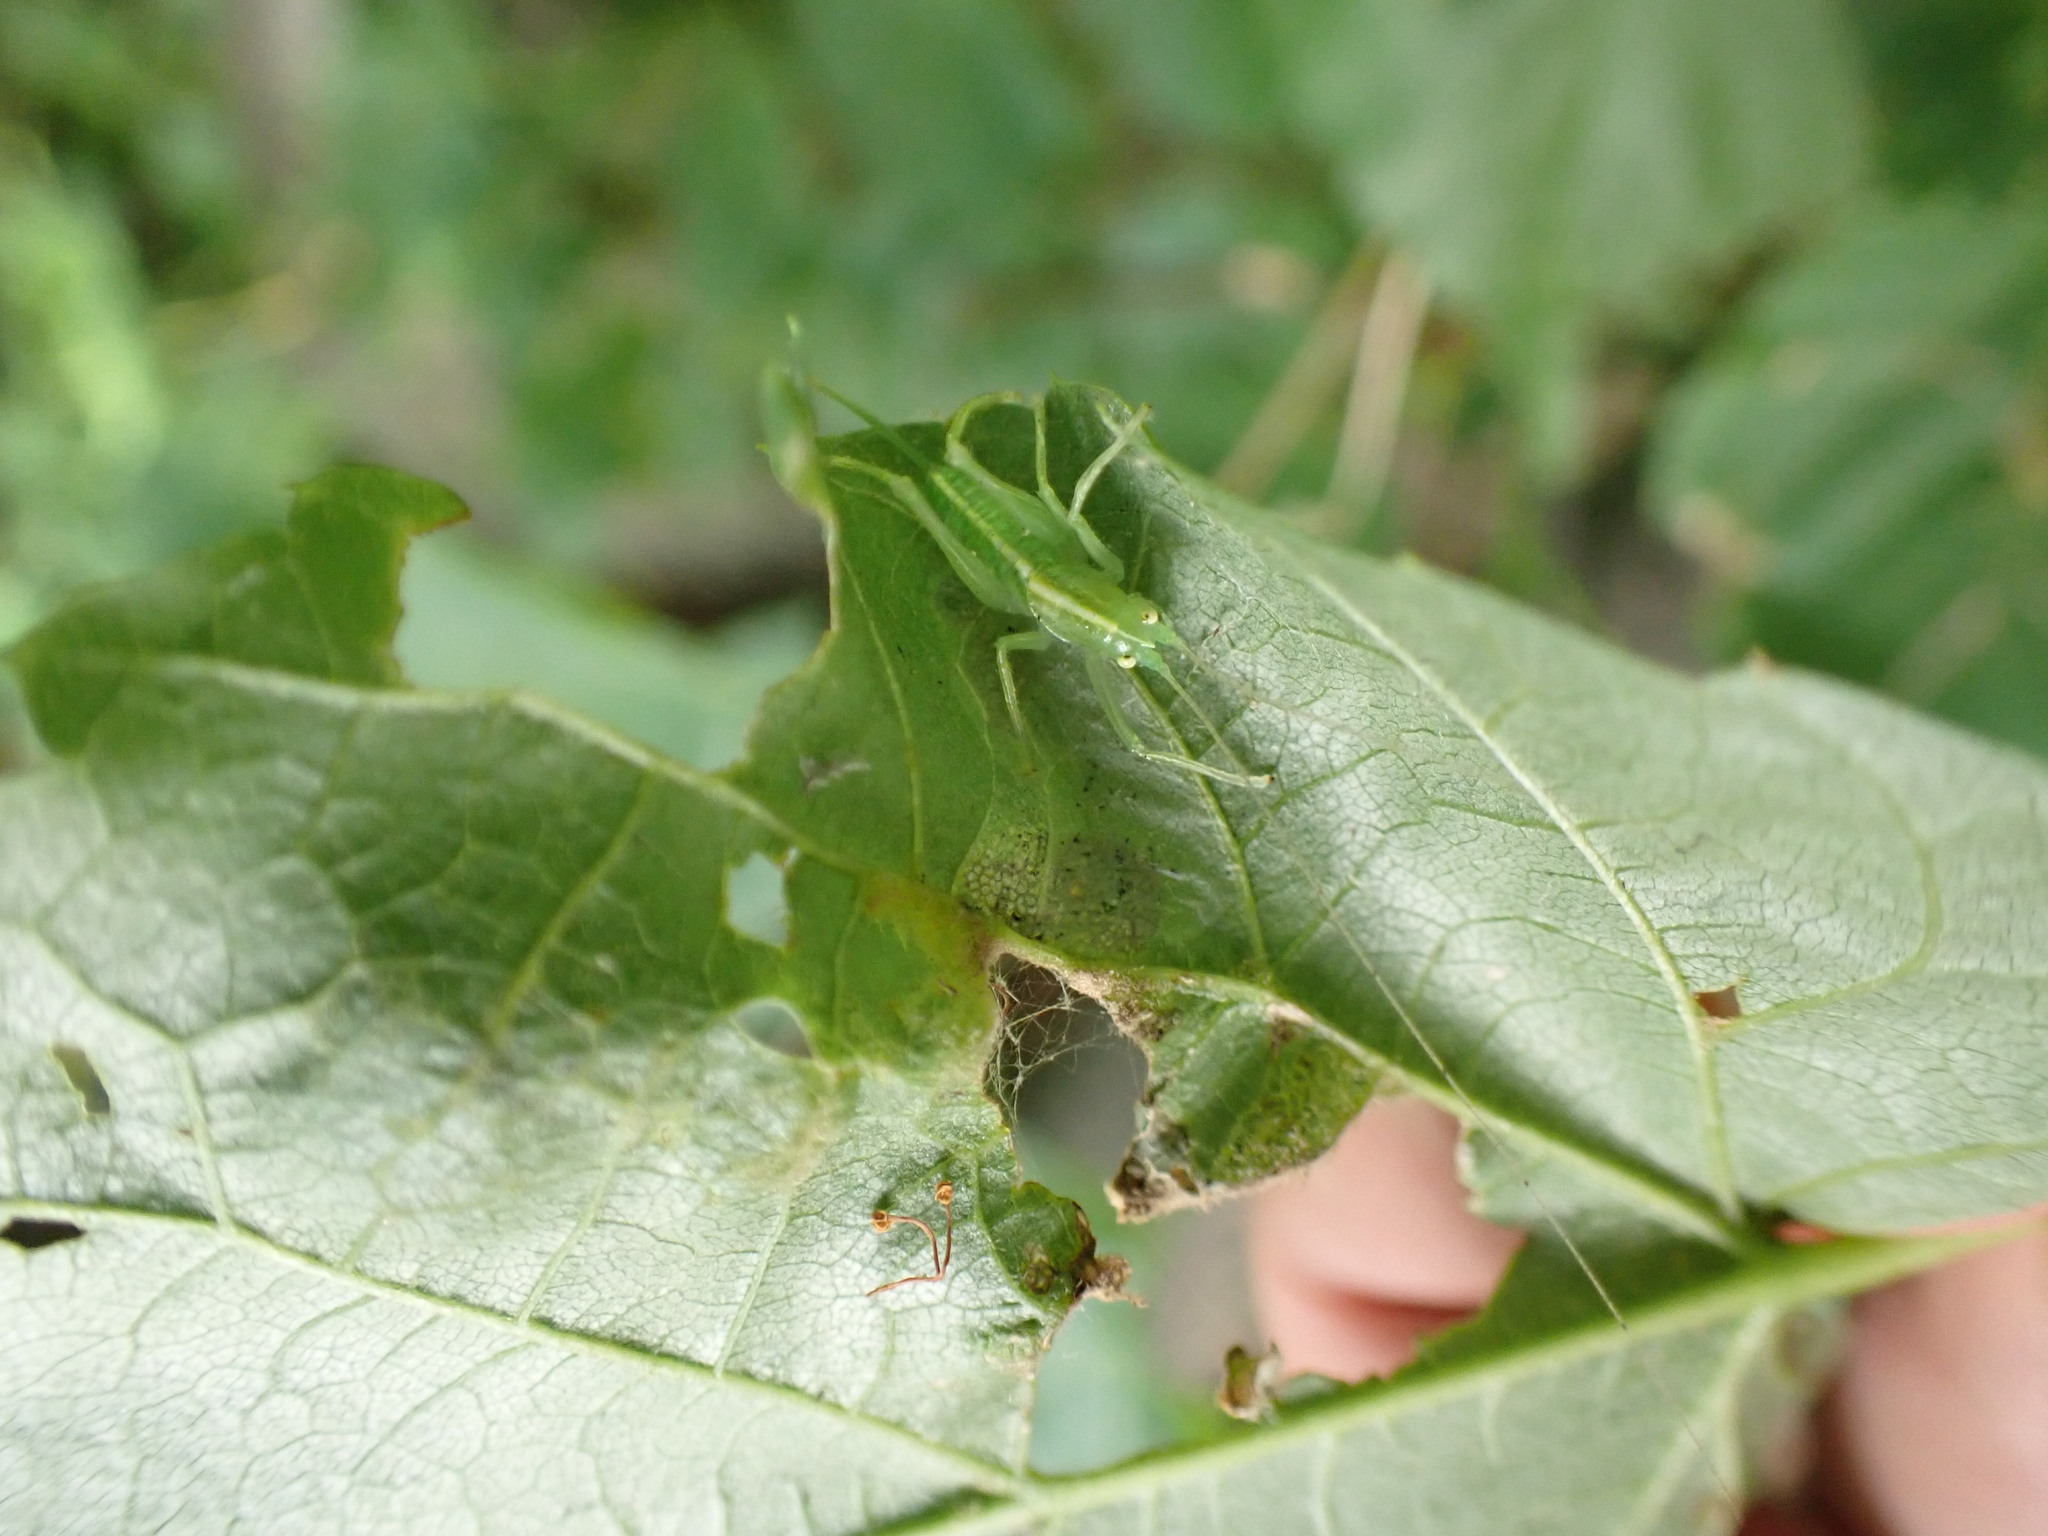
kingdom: Animalia
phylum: Arthropoda
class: Insecta
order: Orthoptera
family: Tettigoniidae
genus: Meconema
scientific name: Meconema meridionale
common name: Southern oak bush-cricket
